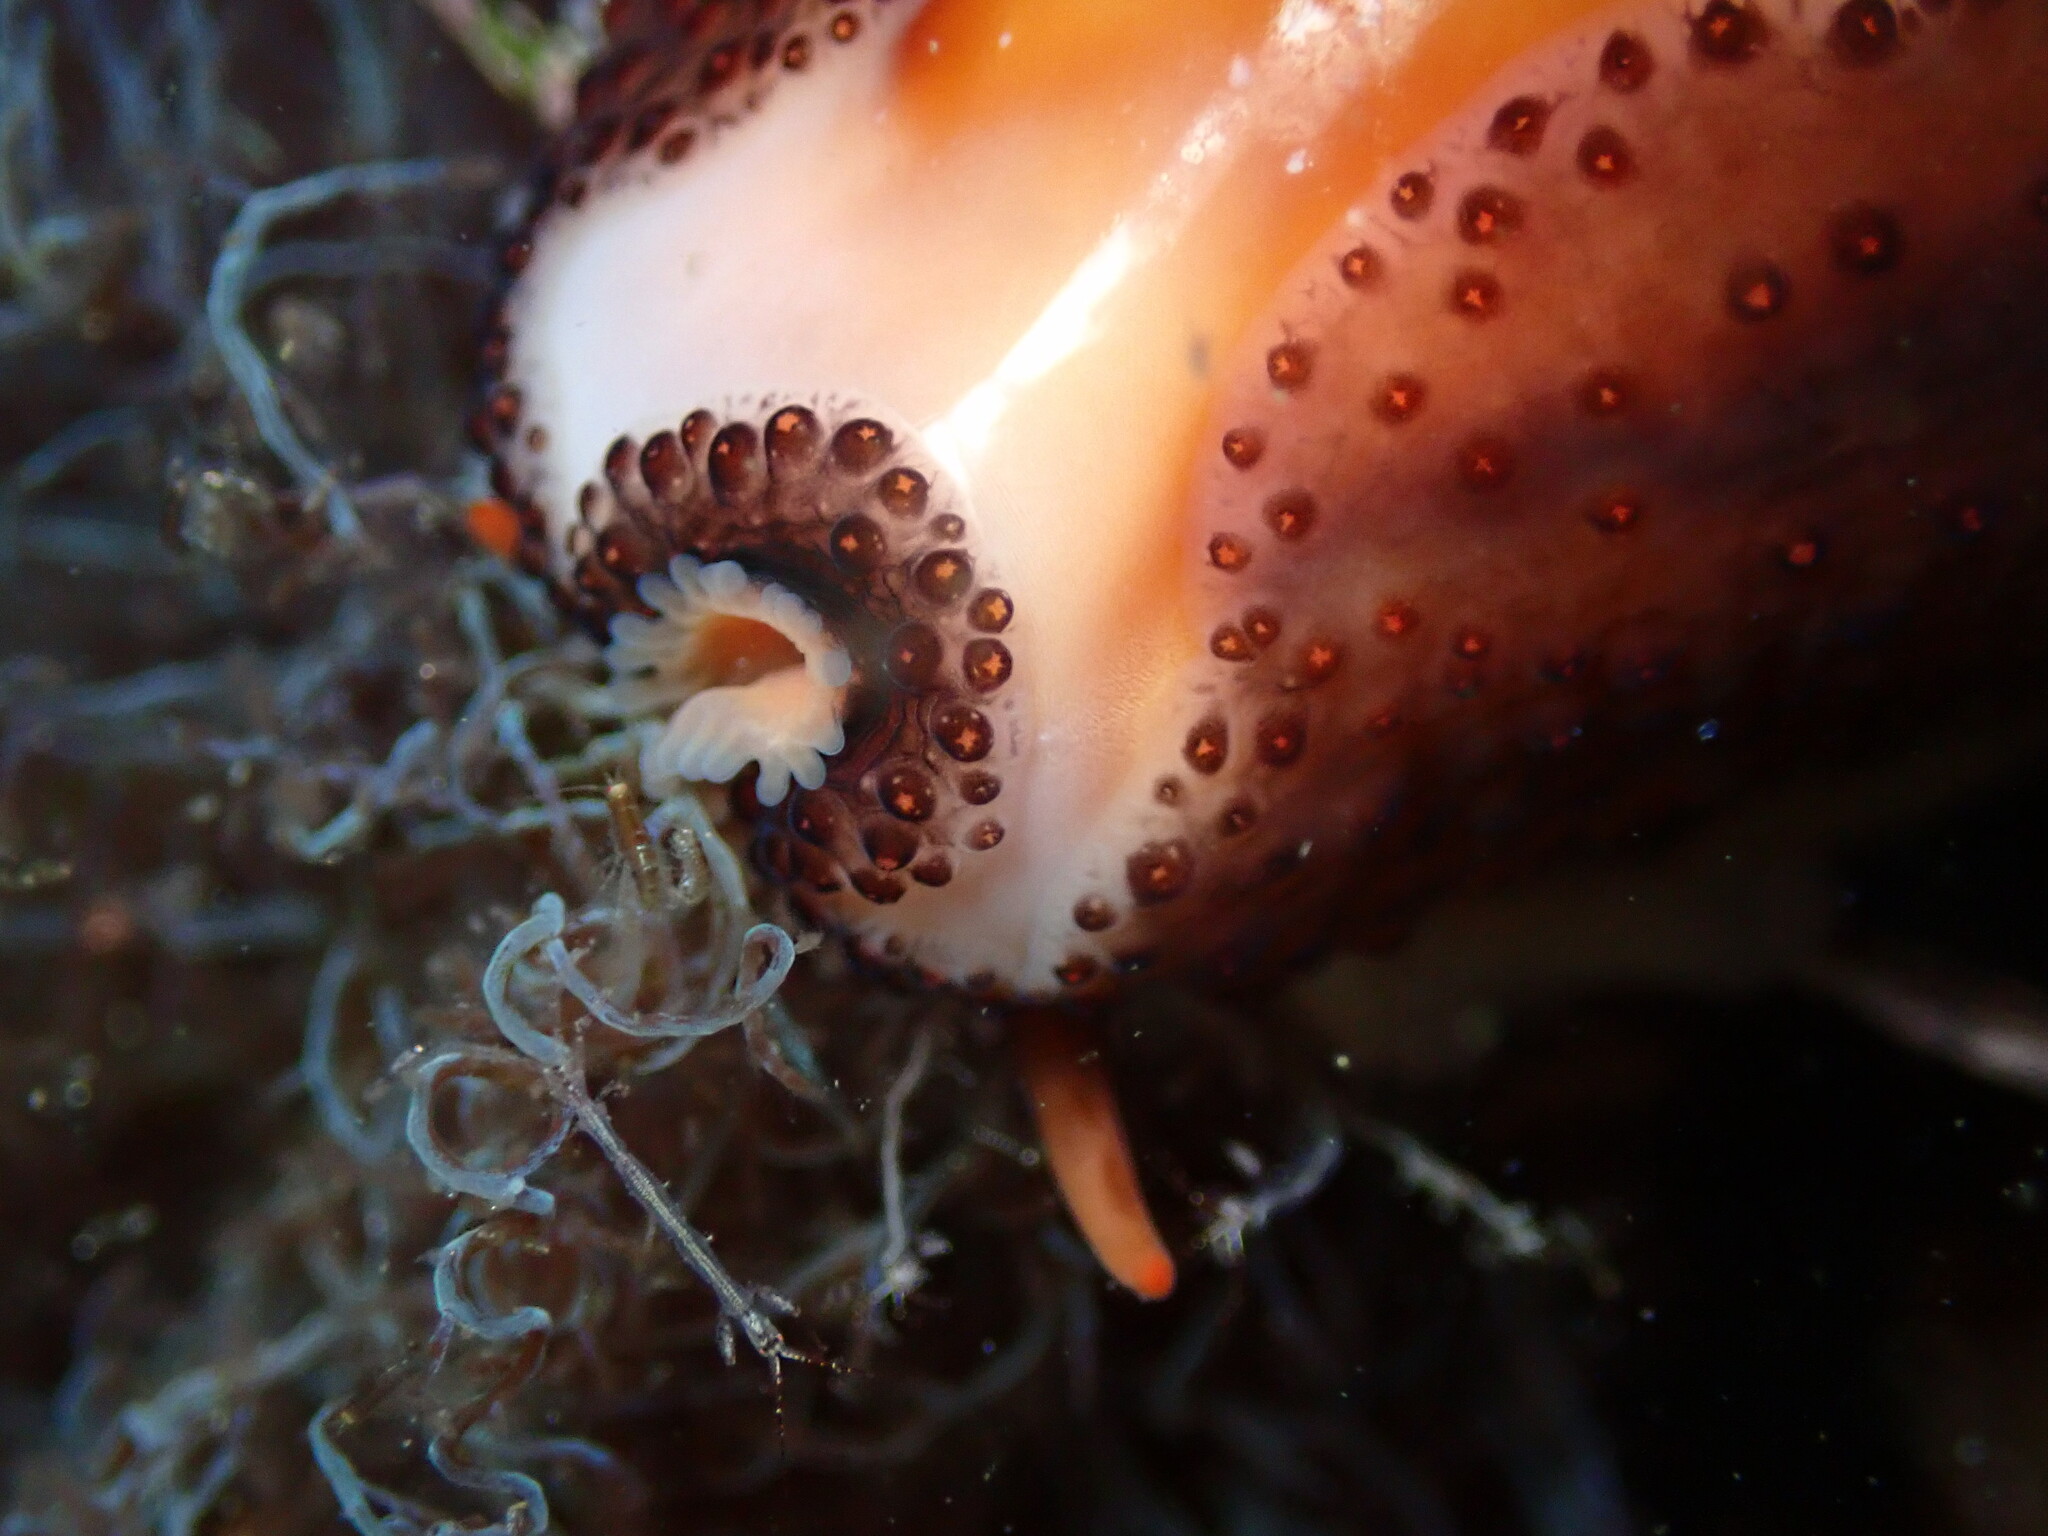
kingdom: Animalia
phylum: Mollusca
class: Gastropoda
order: Littorinimorpha
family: Cypraeidae
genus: Neobernaya
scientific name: Neobernaya spadicea
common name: Chestnut cowrie
